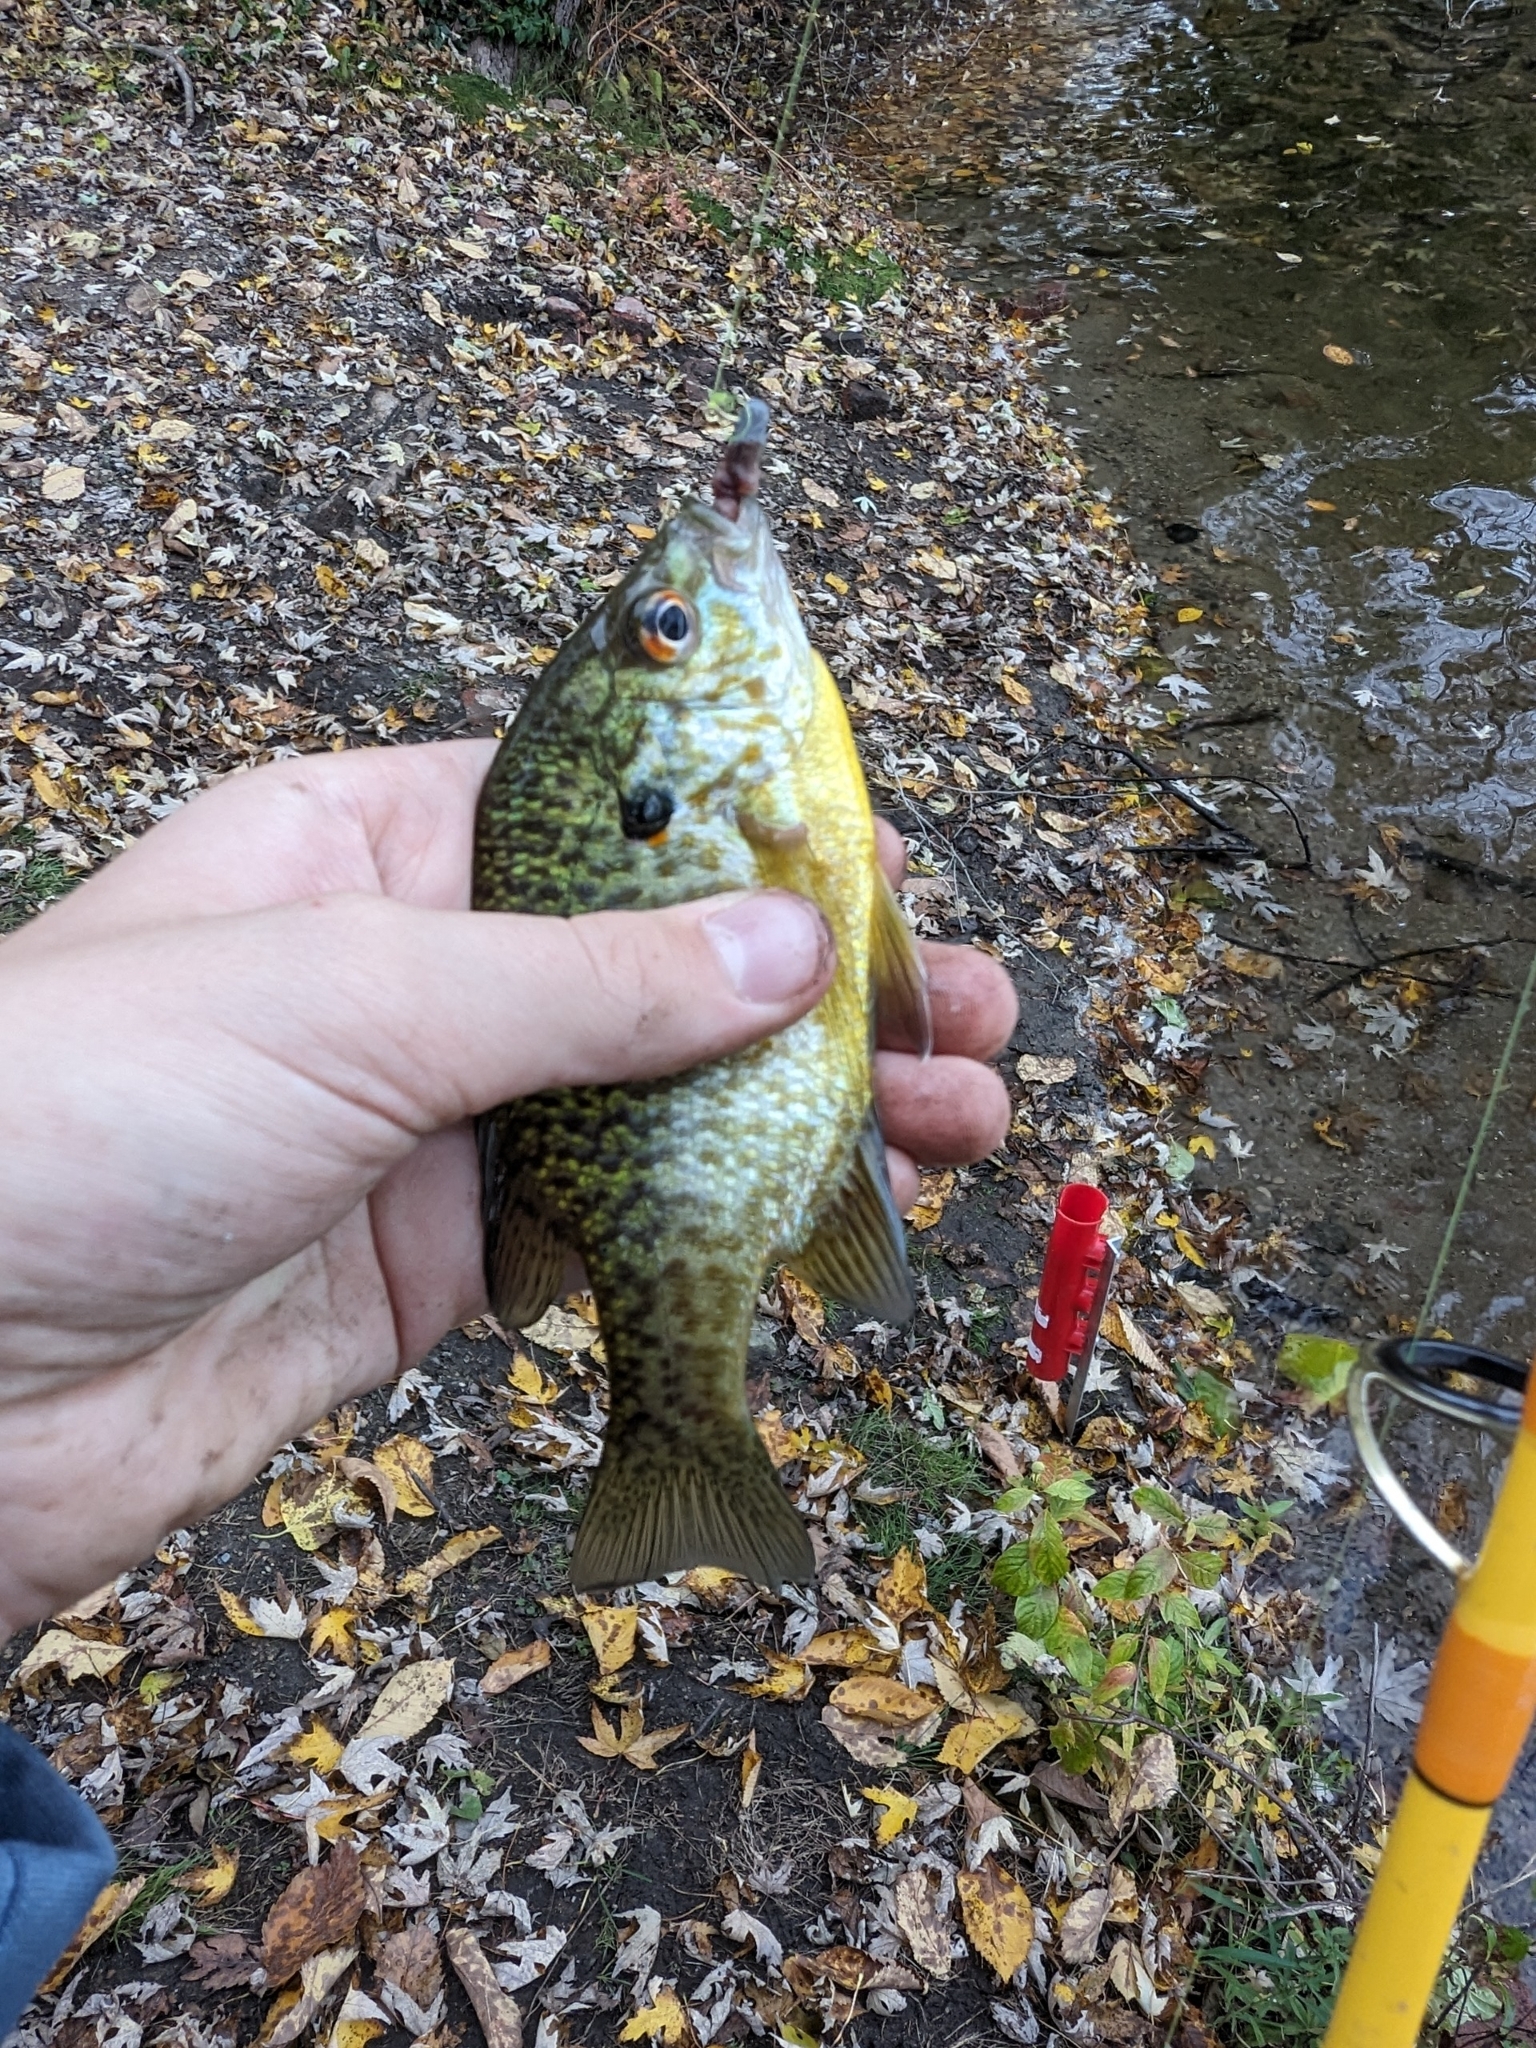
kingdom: Animalia
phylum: Chordata
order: Perciformes
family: Centrarchidae
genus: Lepomis
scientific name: Lepomis
